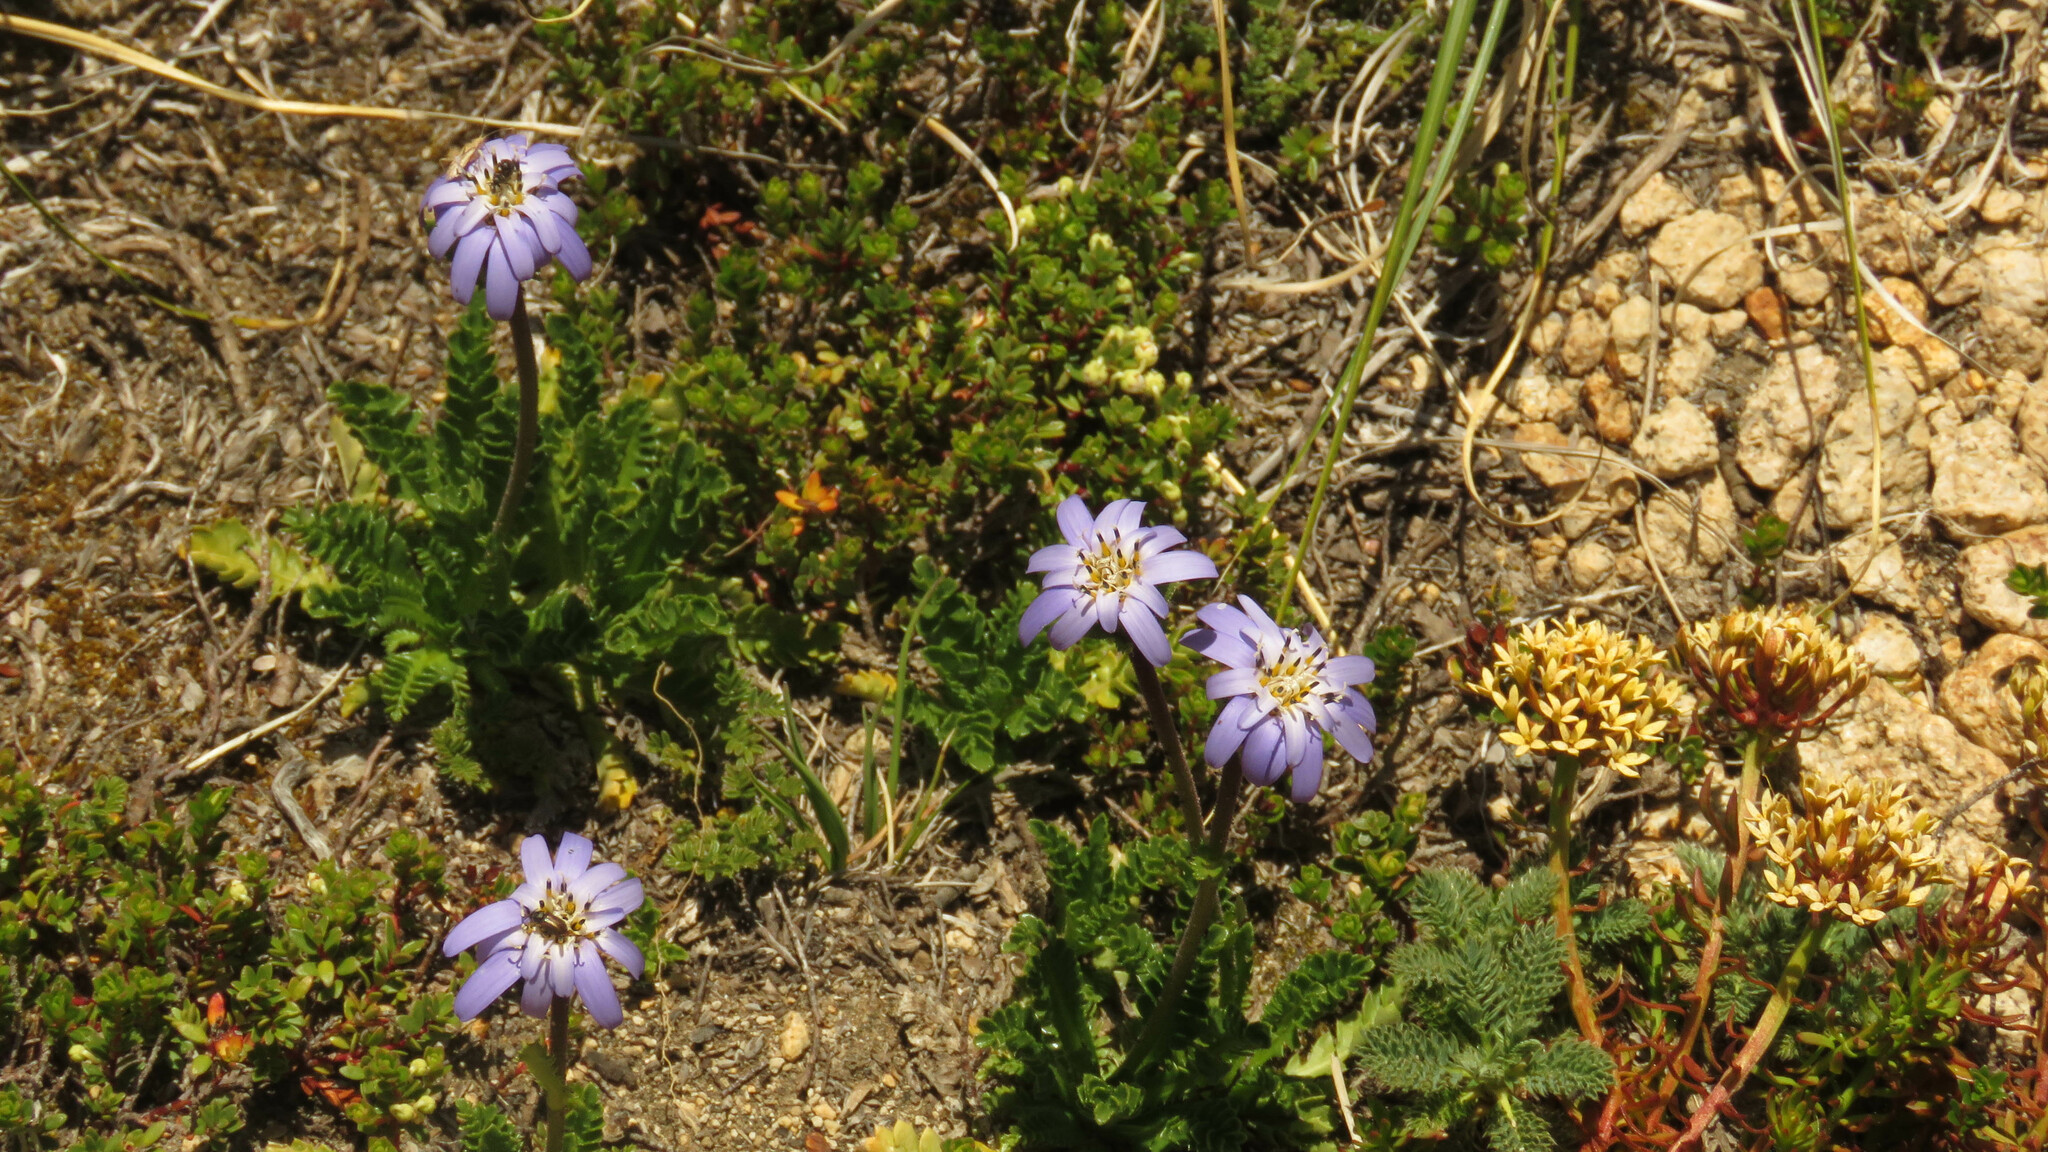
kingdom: Plantae
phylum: Tracheophyta
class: Magnoliopsida
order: Asterales
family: Asteraceae
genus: Perezia
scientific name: Perezia fonckii
